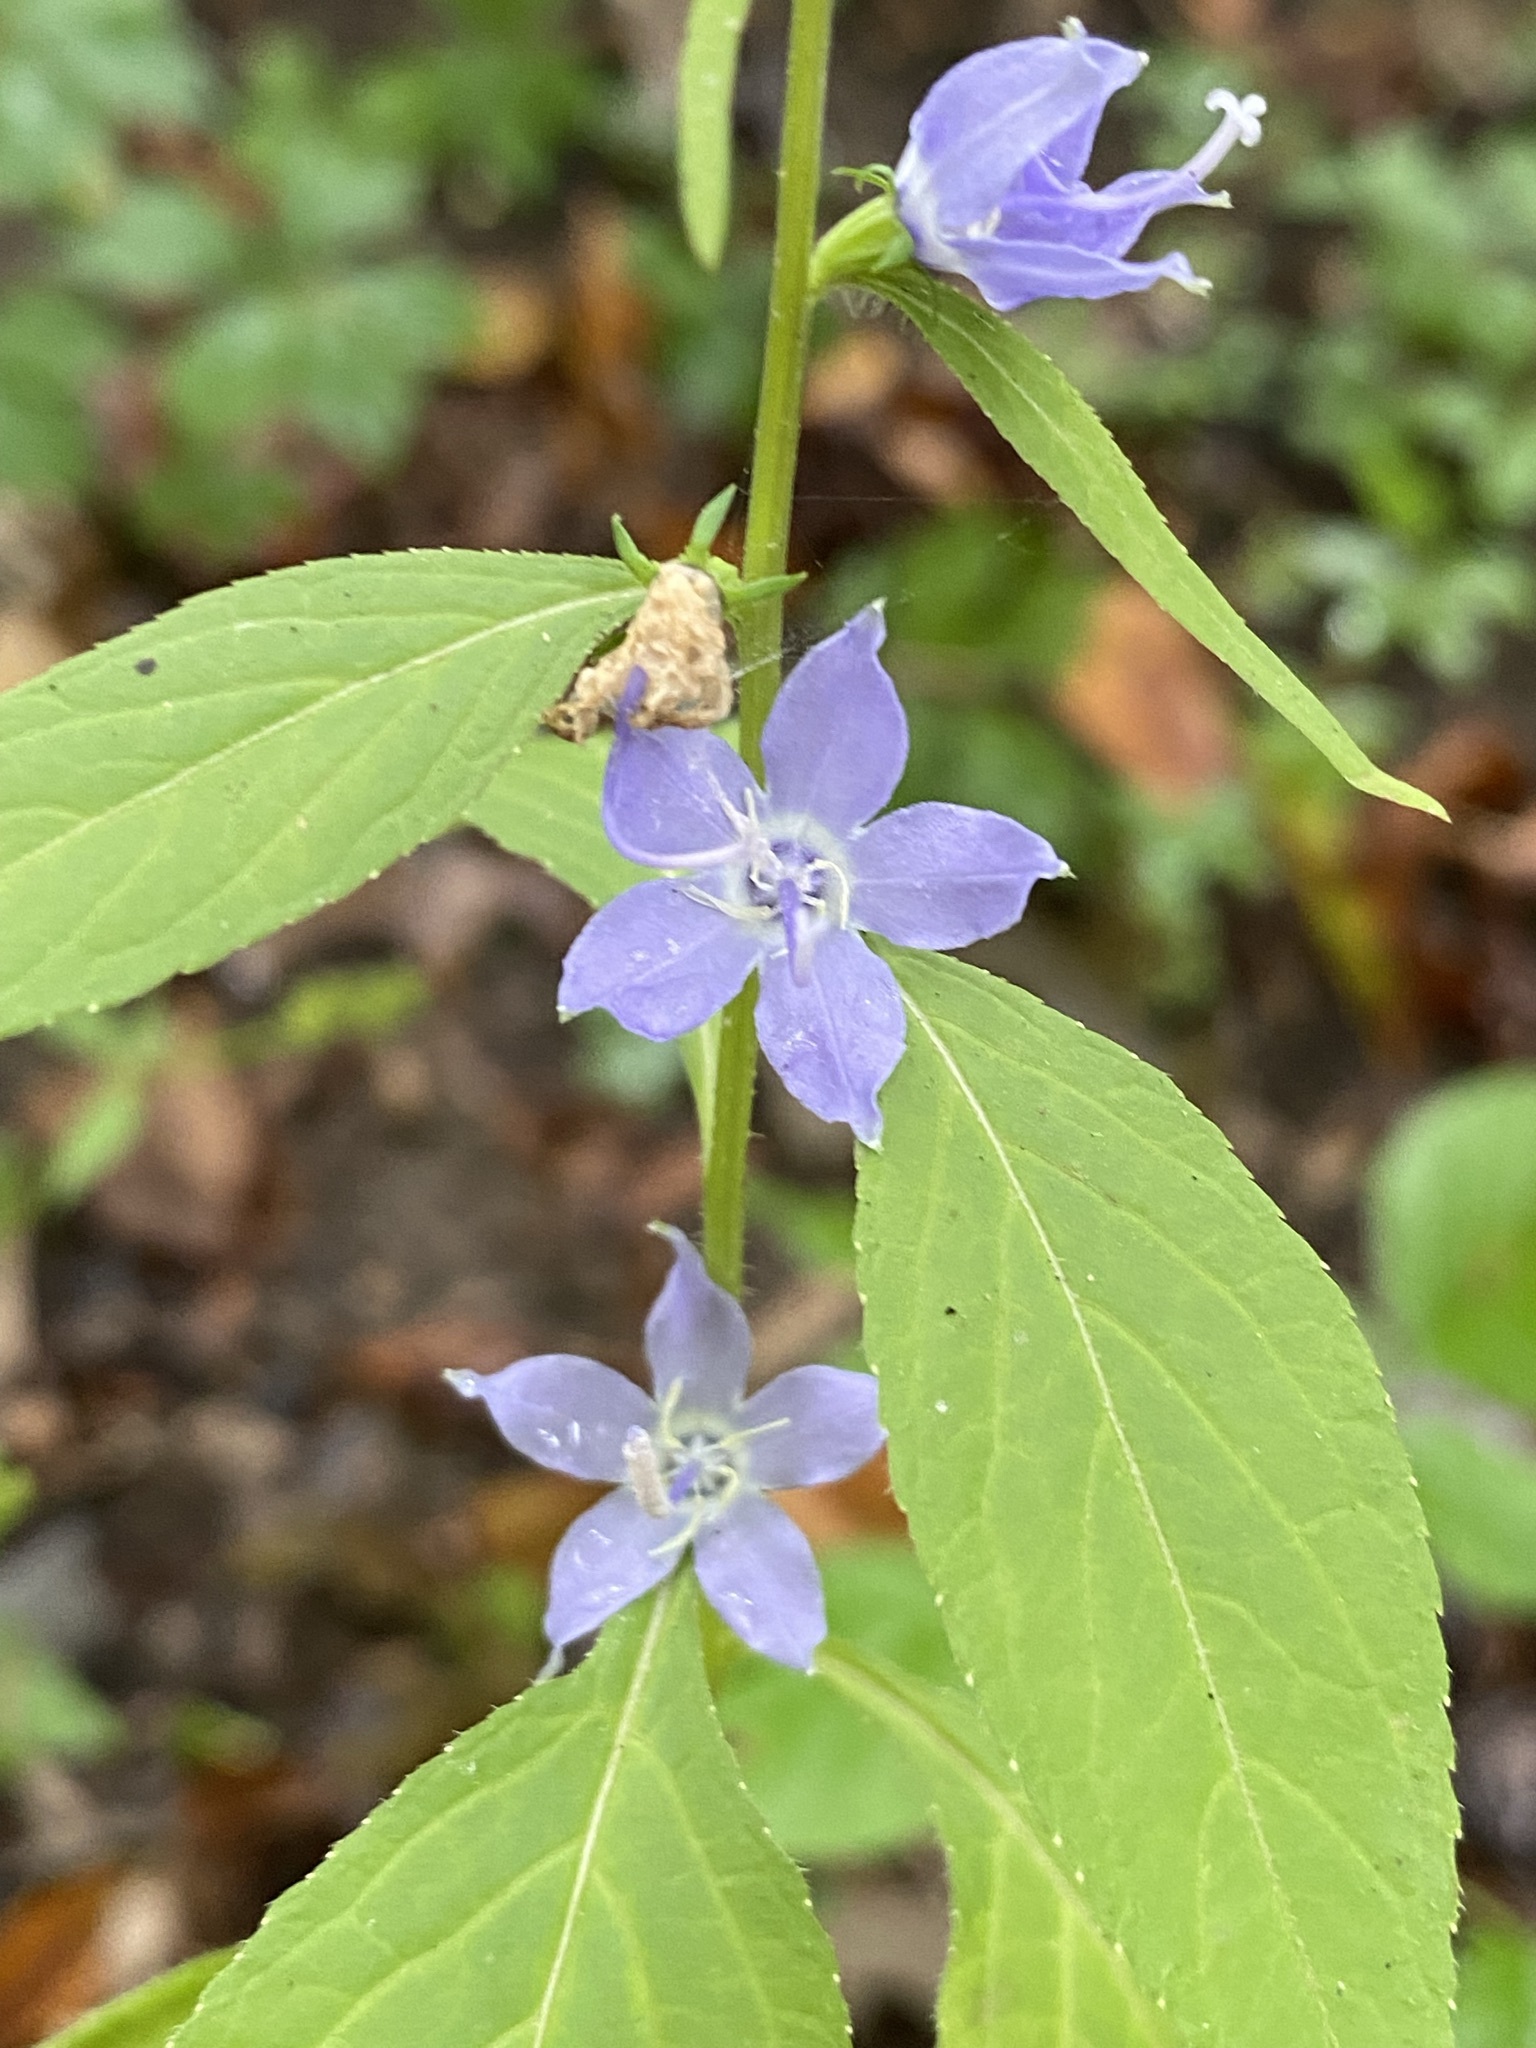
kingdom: Plantae
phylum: Tracheophyta
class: Magnoliopsida
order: Asterales
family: Campanulaceae
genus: Campanulastrum
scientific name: Campanulastrum americanum
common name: American bellflower
